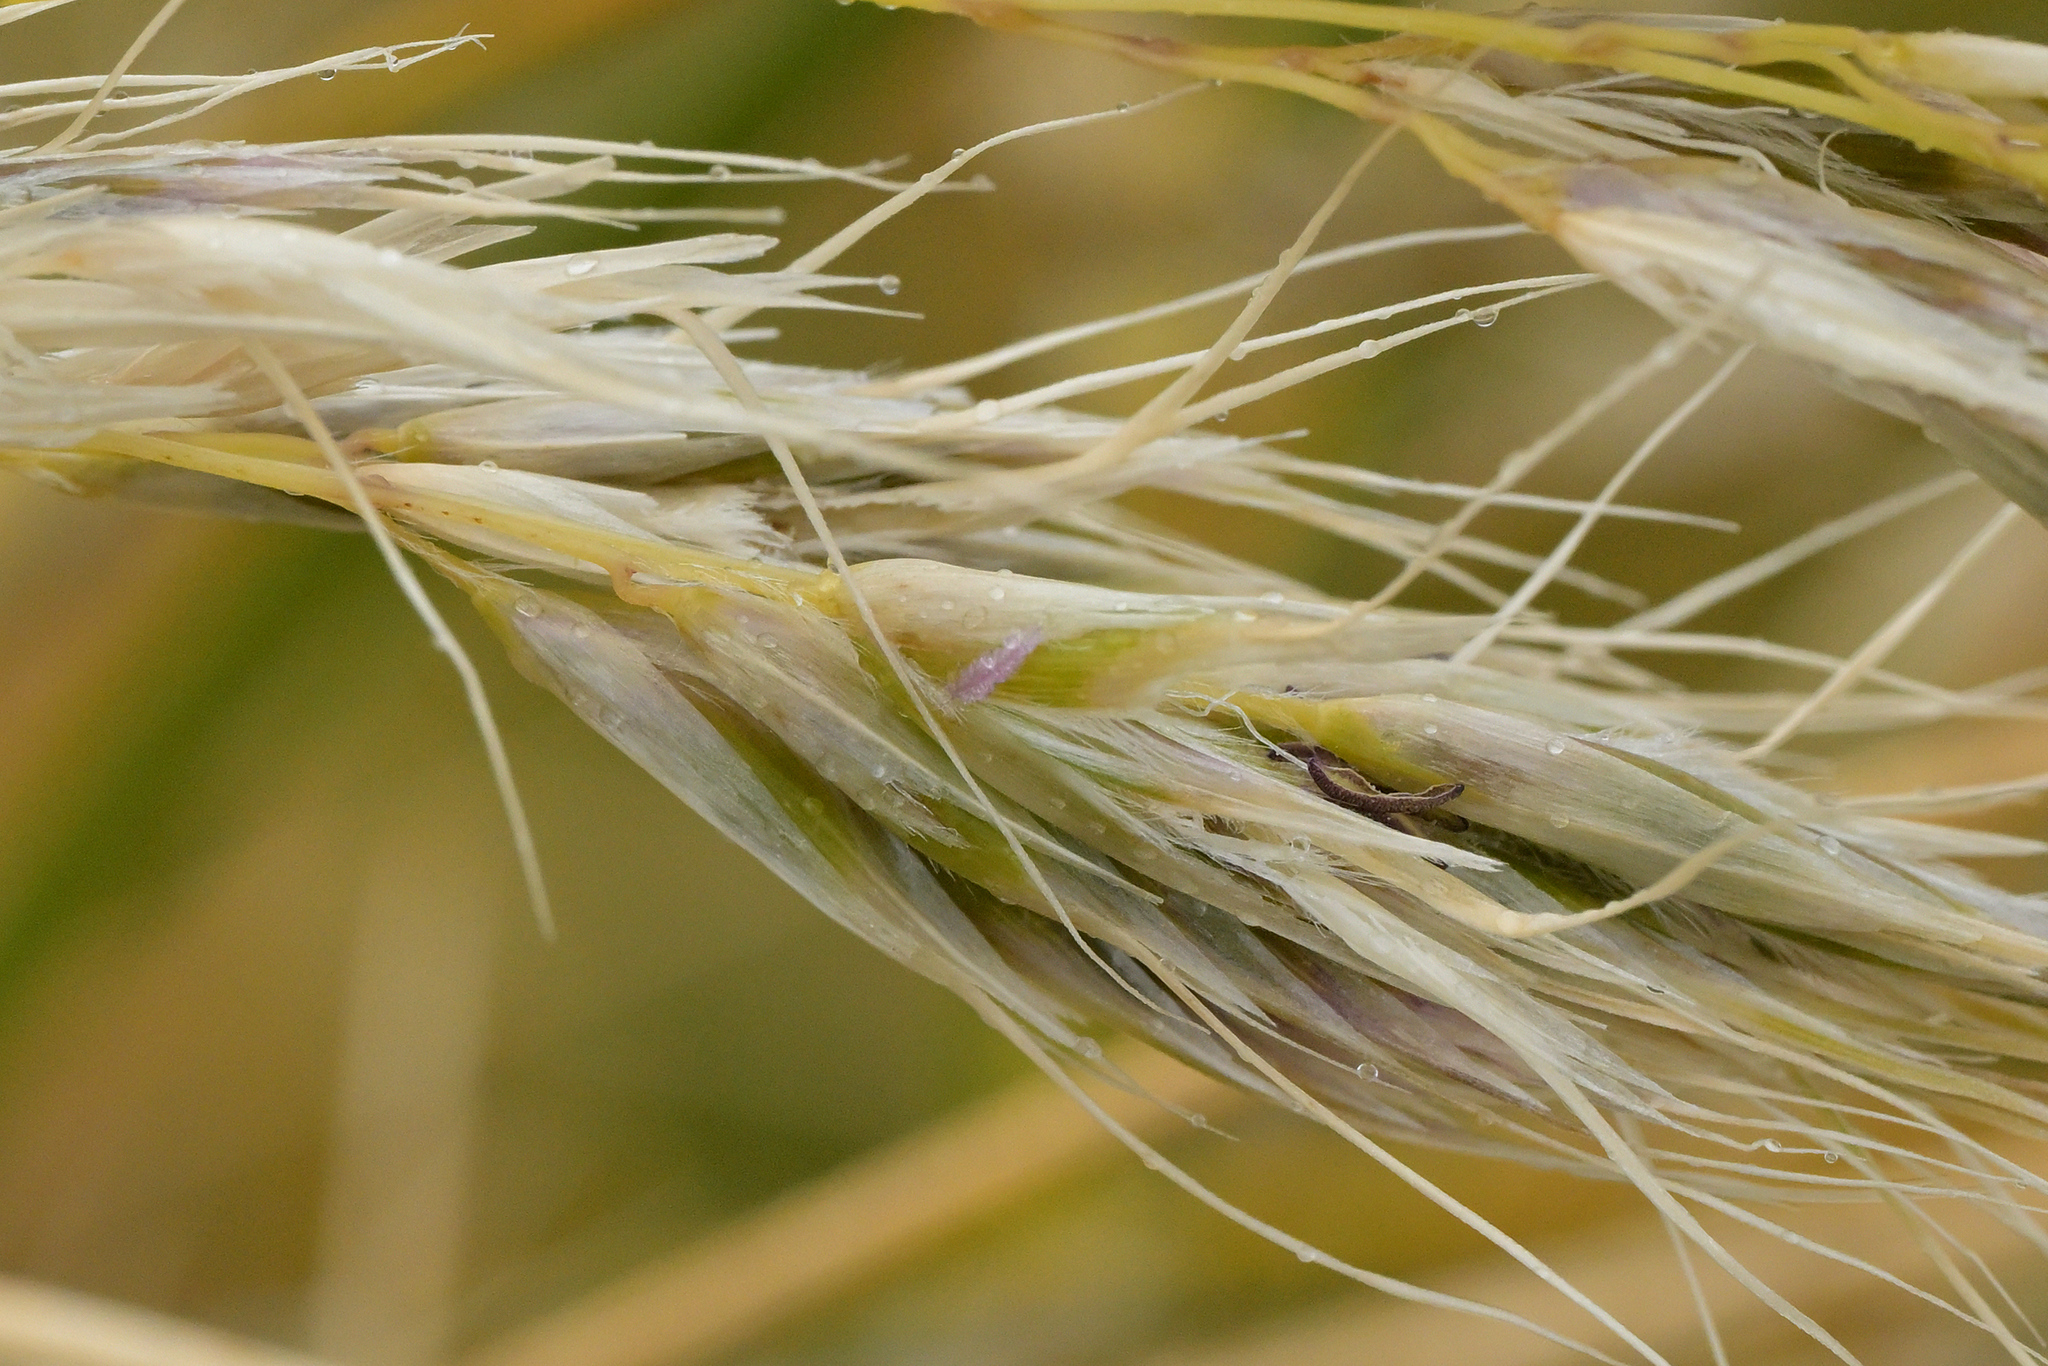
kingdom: Plantae
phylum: Tracheophyta
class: Liliopsida
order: Poales
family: Poaceae
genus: Chionochloa
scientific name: Chionochloa antarctica
